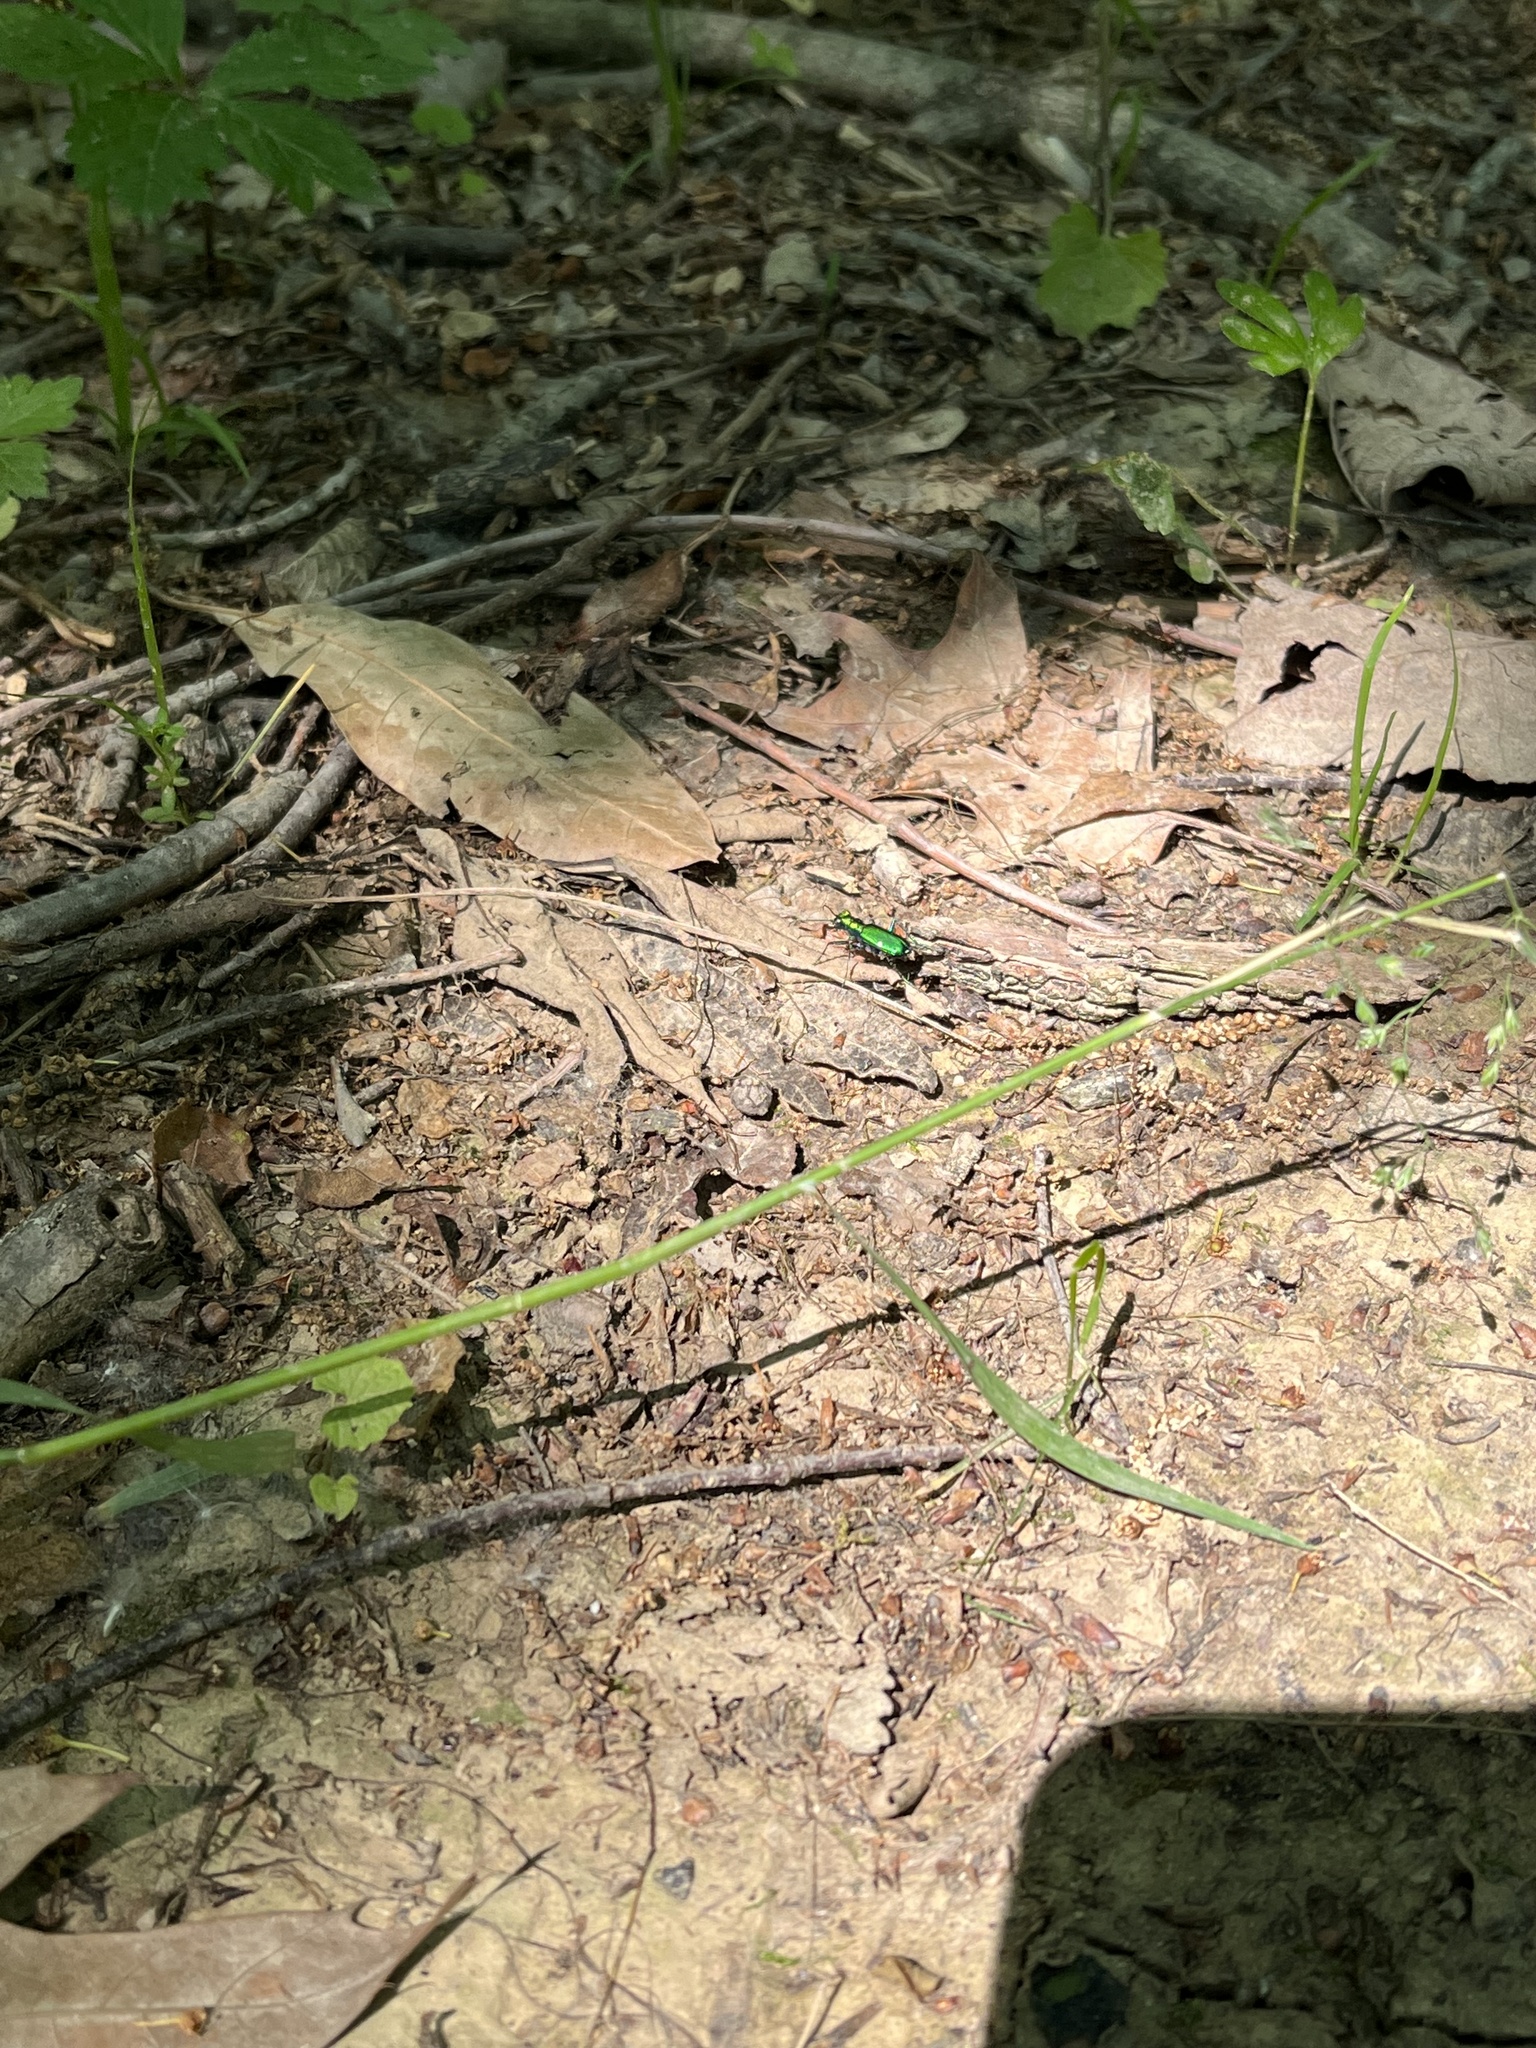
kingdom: Animalia
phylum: Arthropoda
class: Insecta
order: Coleoptera
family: Carabidae
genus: Cicindela
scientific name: Cicindela sexguttata
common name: Six-spotted tiger beetle
